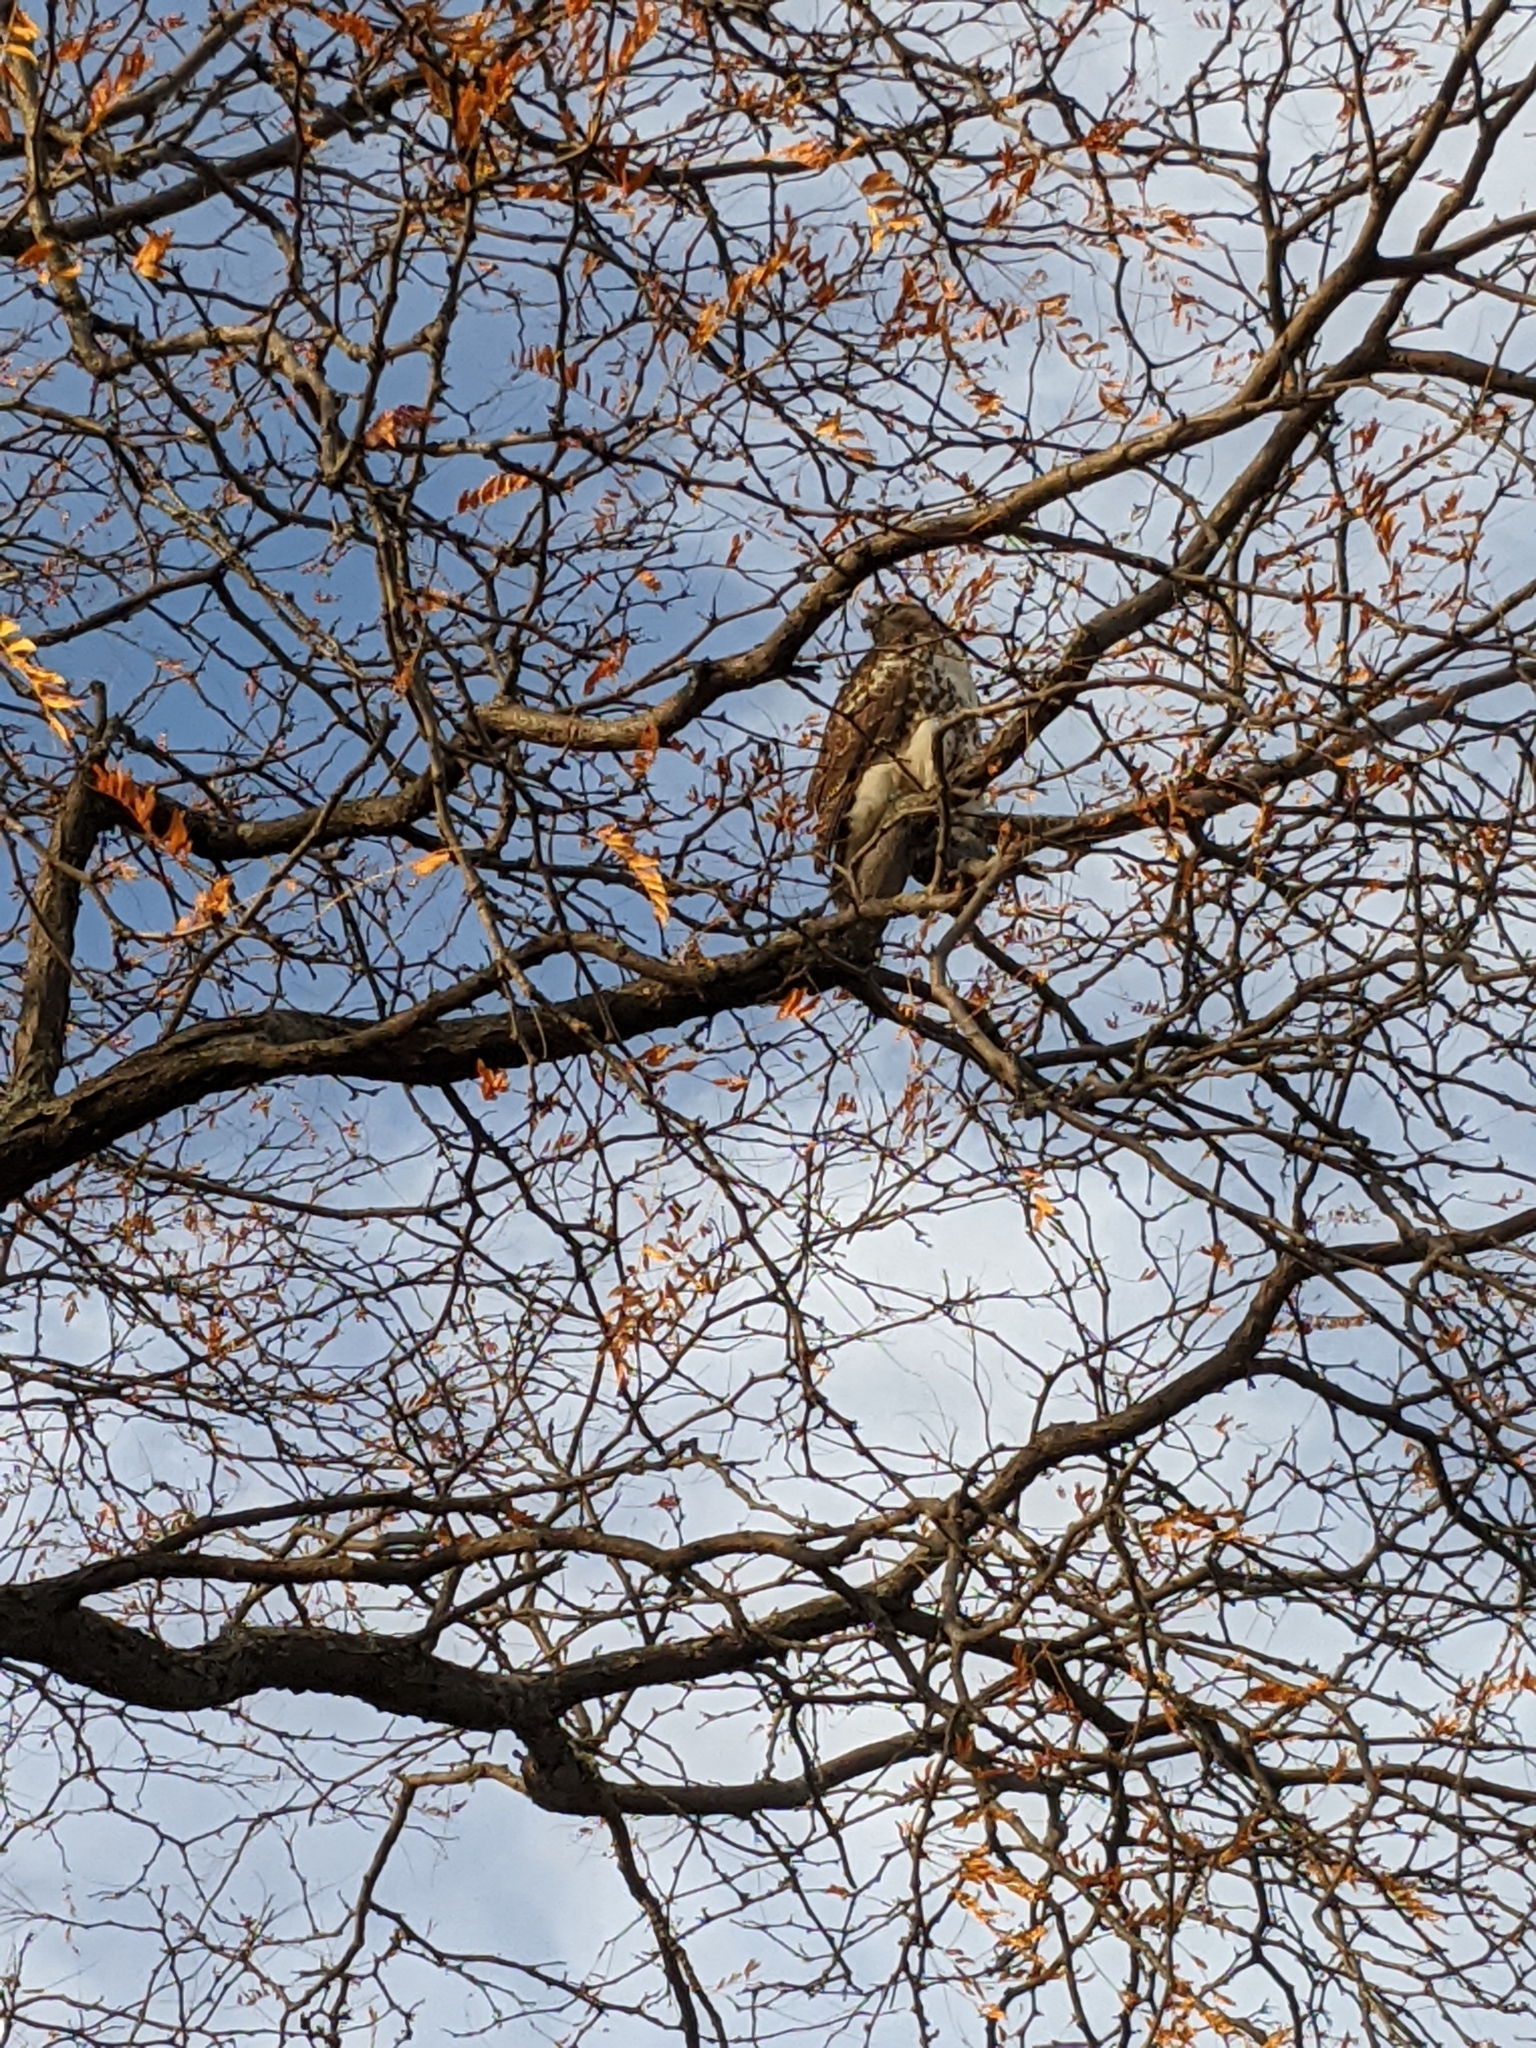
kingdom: Animalia
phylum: Chordata
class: Aves
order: Accipitriformes
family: Accipitridae
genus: Buteo
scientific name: Buteo jamaicensis
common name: Red-tailed hawk
